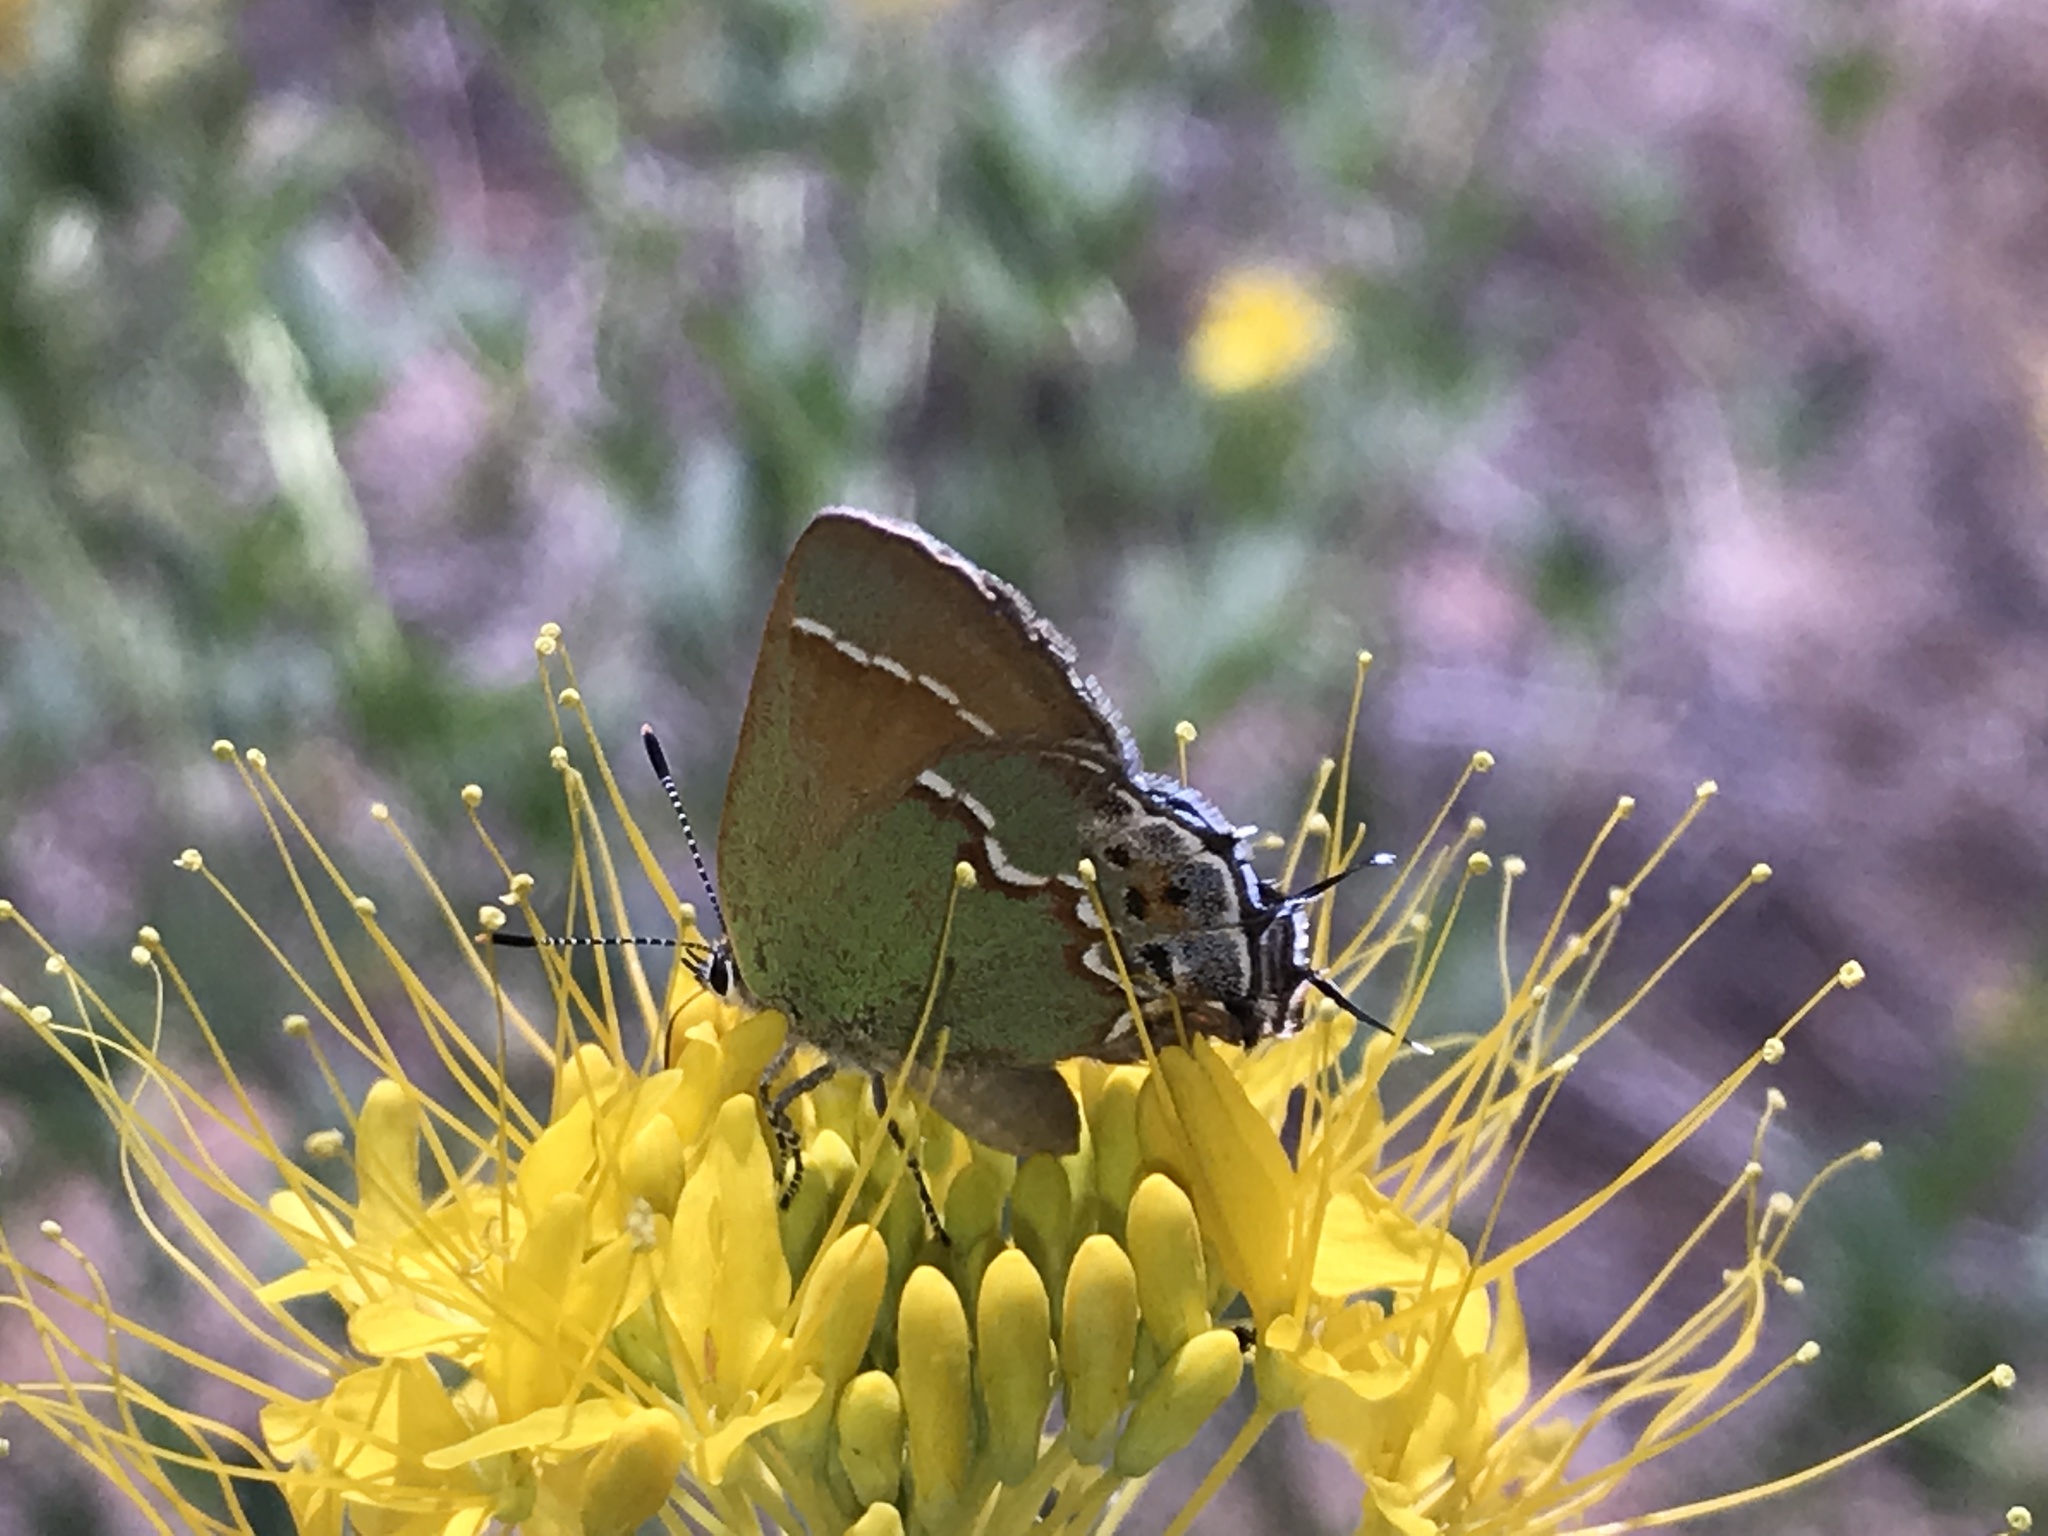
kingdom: Animalia
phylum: Arthropoda
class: Insecta
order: Lepidoptera
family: Lycaenidae
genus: Mitoura
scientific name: Mitoura siva
